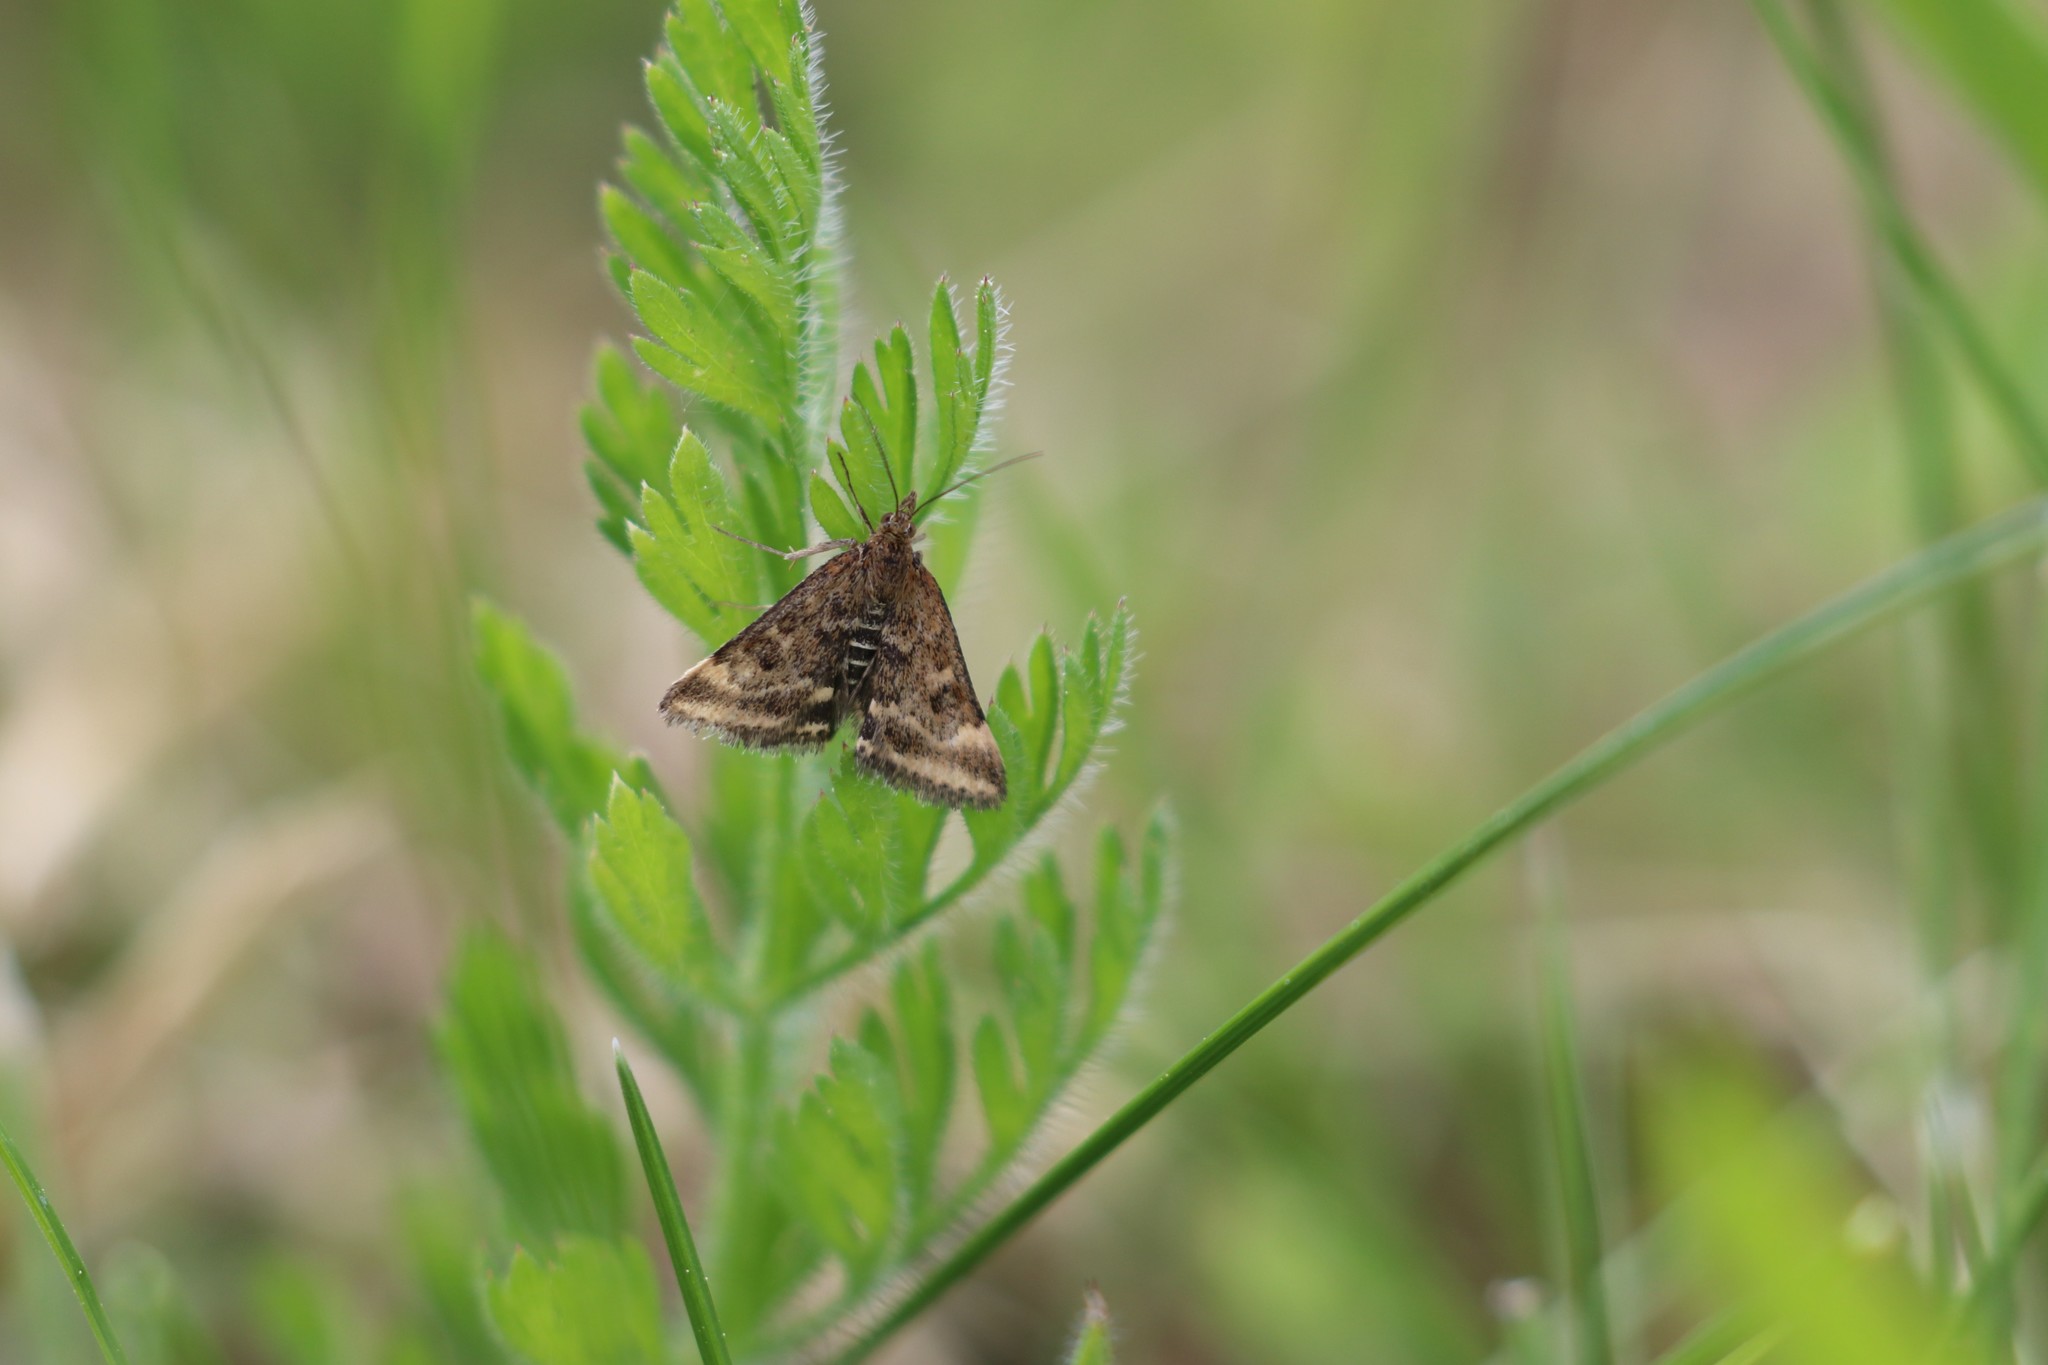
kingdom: Animalia
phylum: Arthropoda
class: Insecta
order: Lepidoptera
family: Crambidae
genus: Pyrausta
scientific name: Pyrausta despicata
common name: Straw-barred pearl
